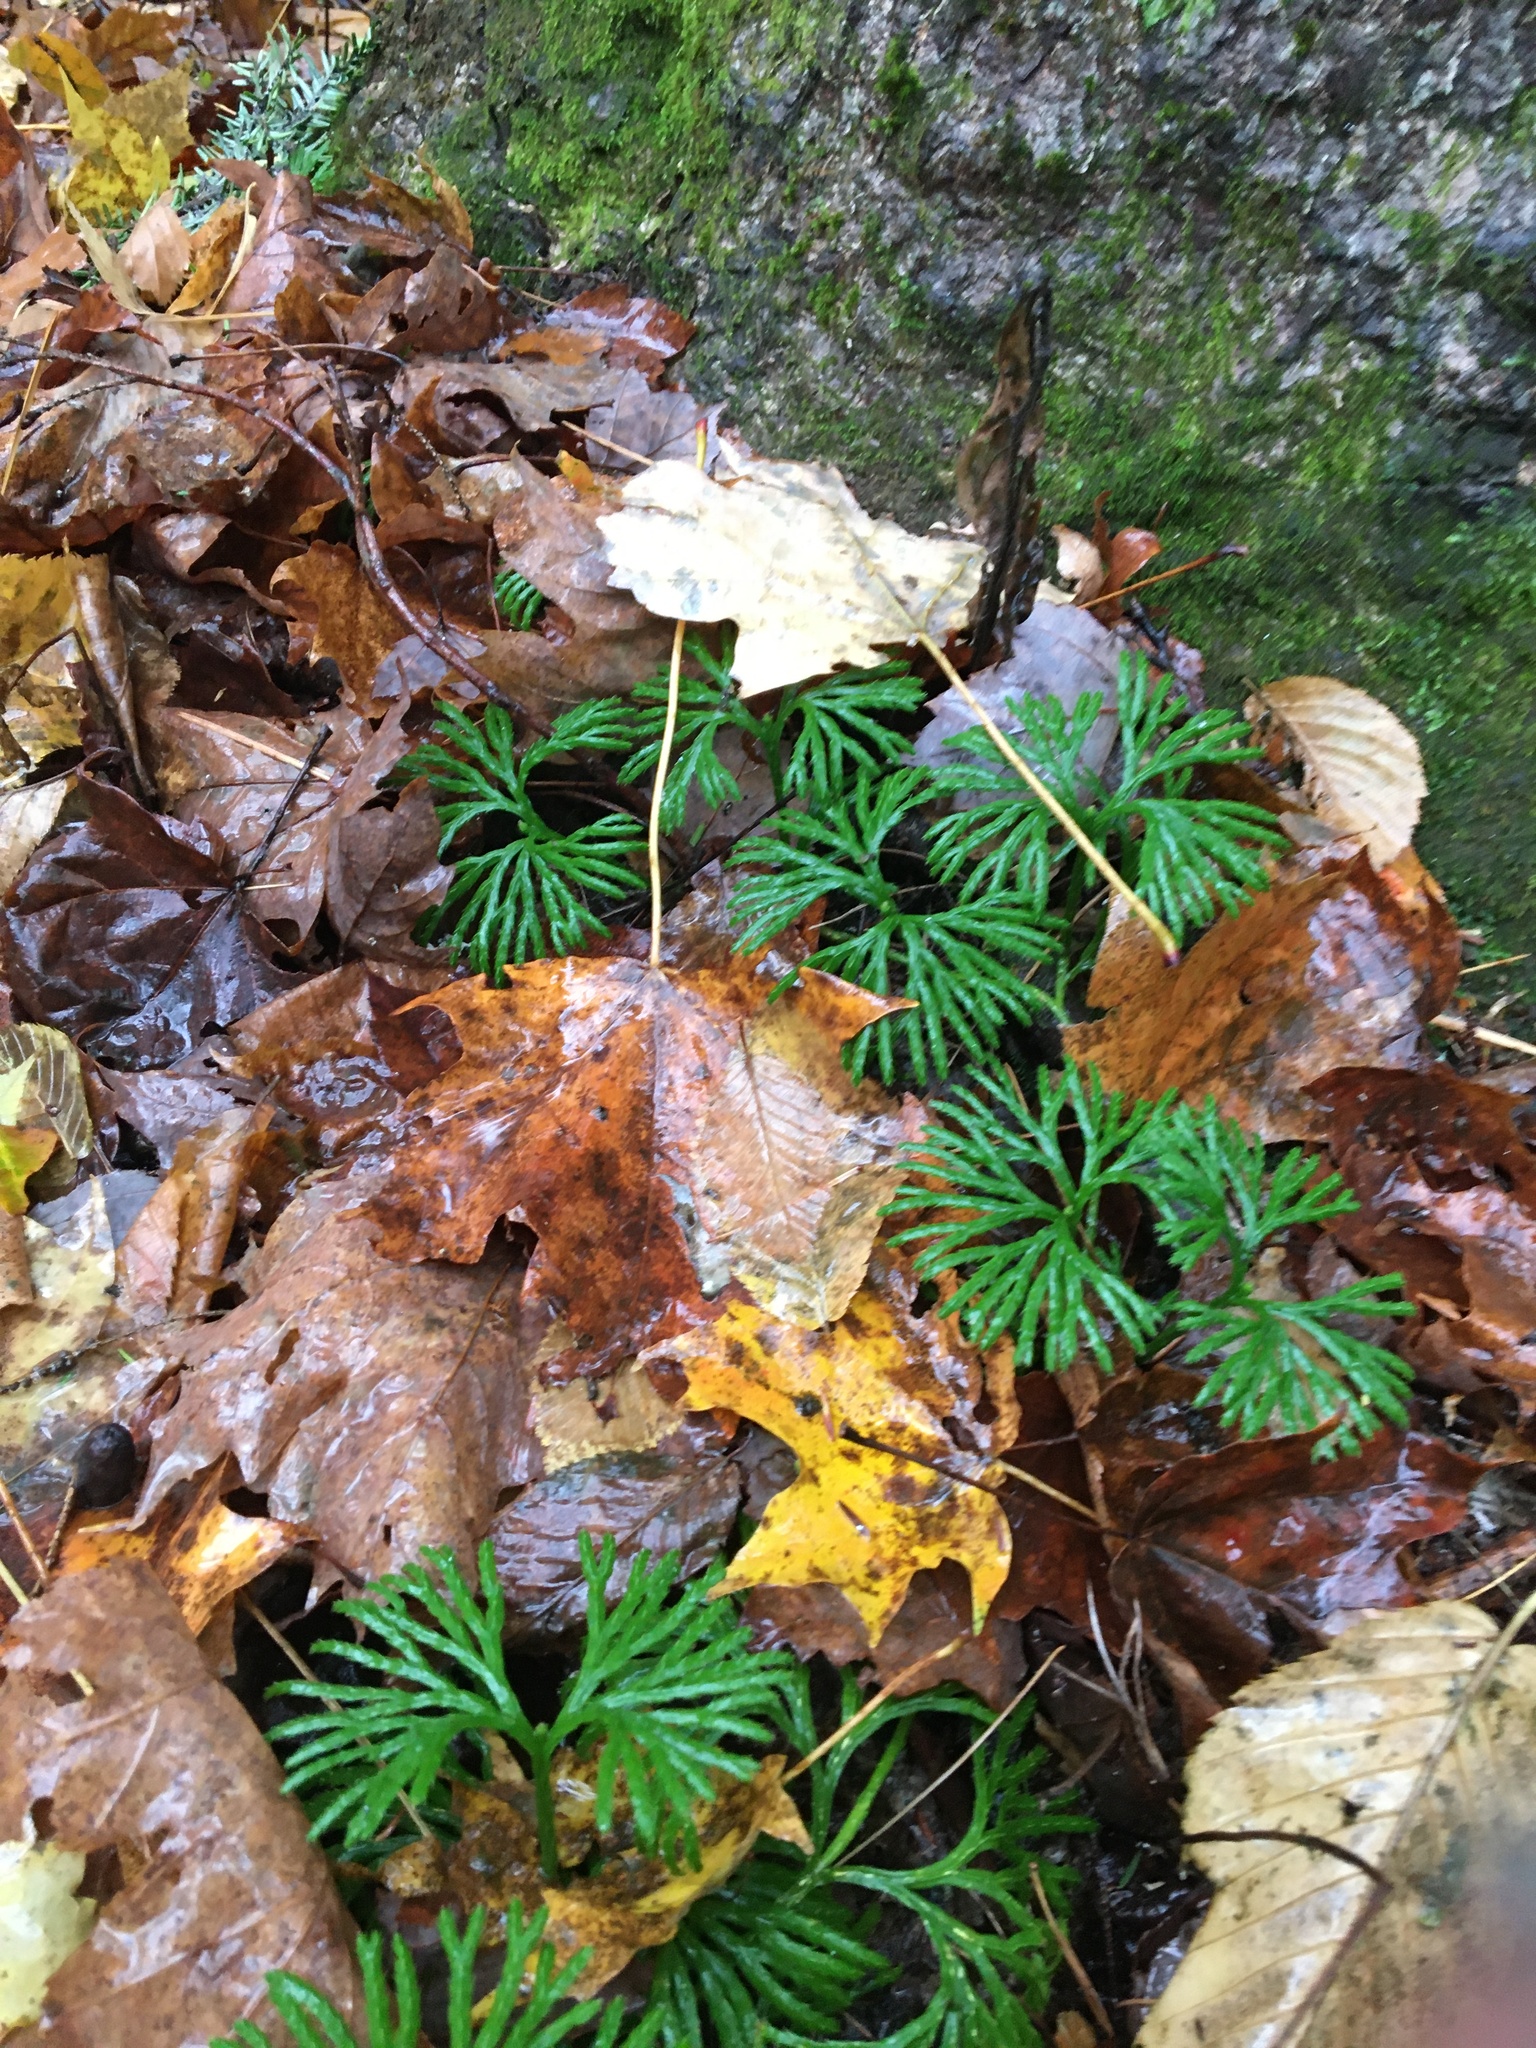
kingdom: Plantae
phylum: Tracheophyta
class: Lycopodiopsida
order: Lycopodiales
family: Lycopodiaceae
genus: Diphasiastrum
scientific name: Diphasiastrum digitatum
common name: Southern running-pine
